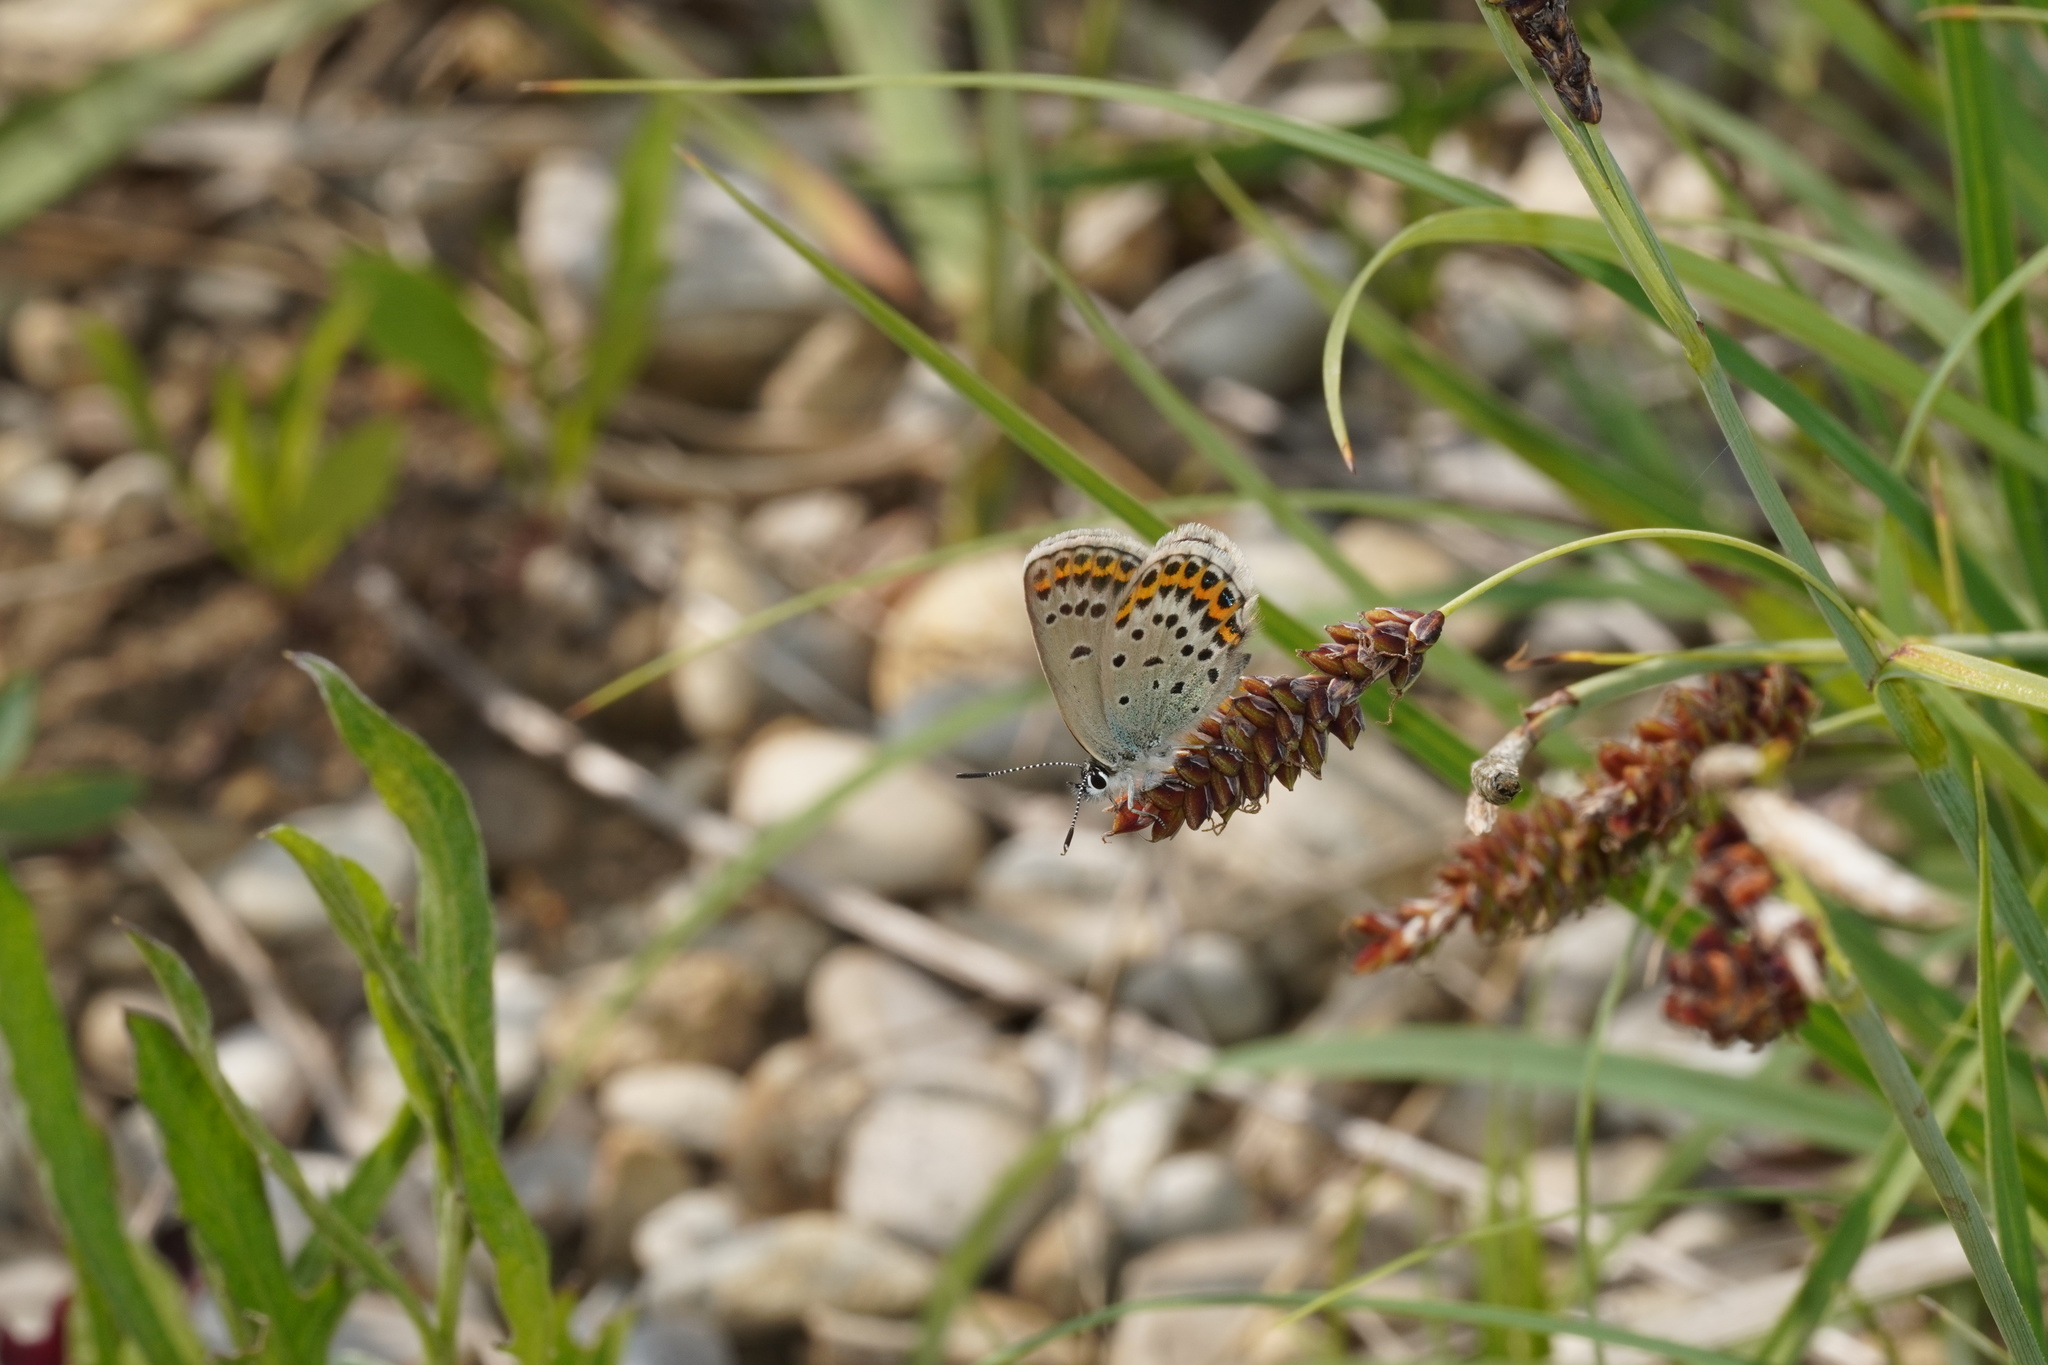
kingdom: Animalia
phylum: Arthropoda
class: Insecta
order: Lepidoptera
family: Lycaenidae
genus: Lycaeides
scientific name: Lycaeides idas
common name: Northern blue
